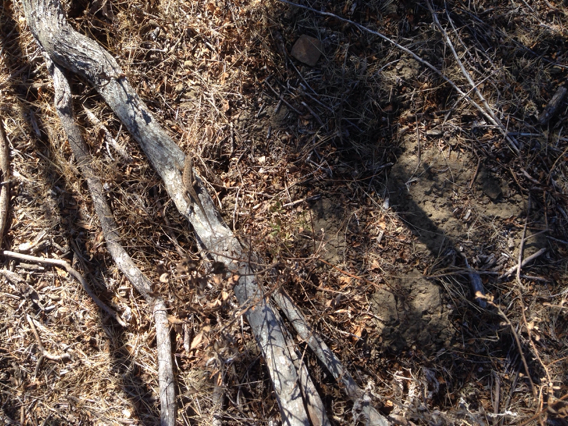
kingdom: Animalia
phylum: Chordata
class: Squamata
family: Phrynosomatidae
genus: Sceloporus
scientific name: Sceloporus occidentalis
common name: Western fence lizard
